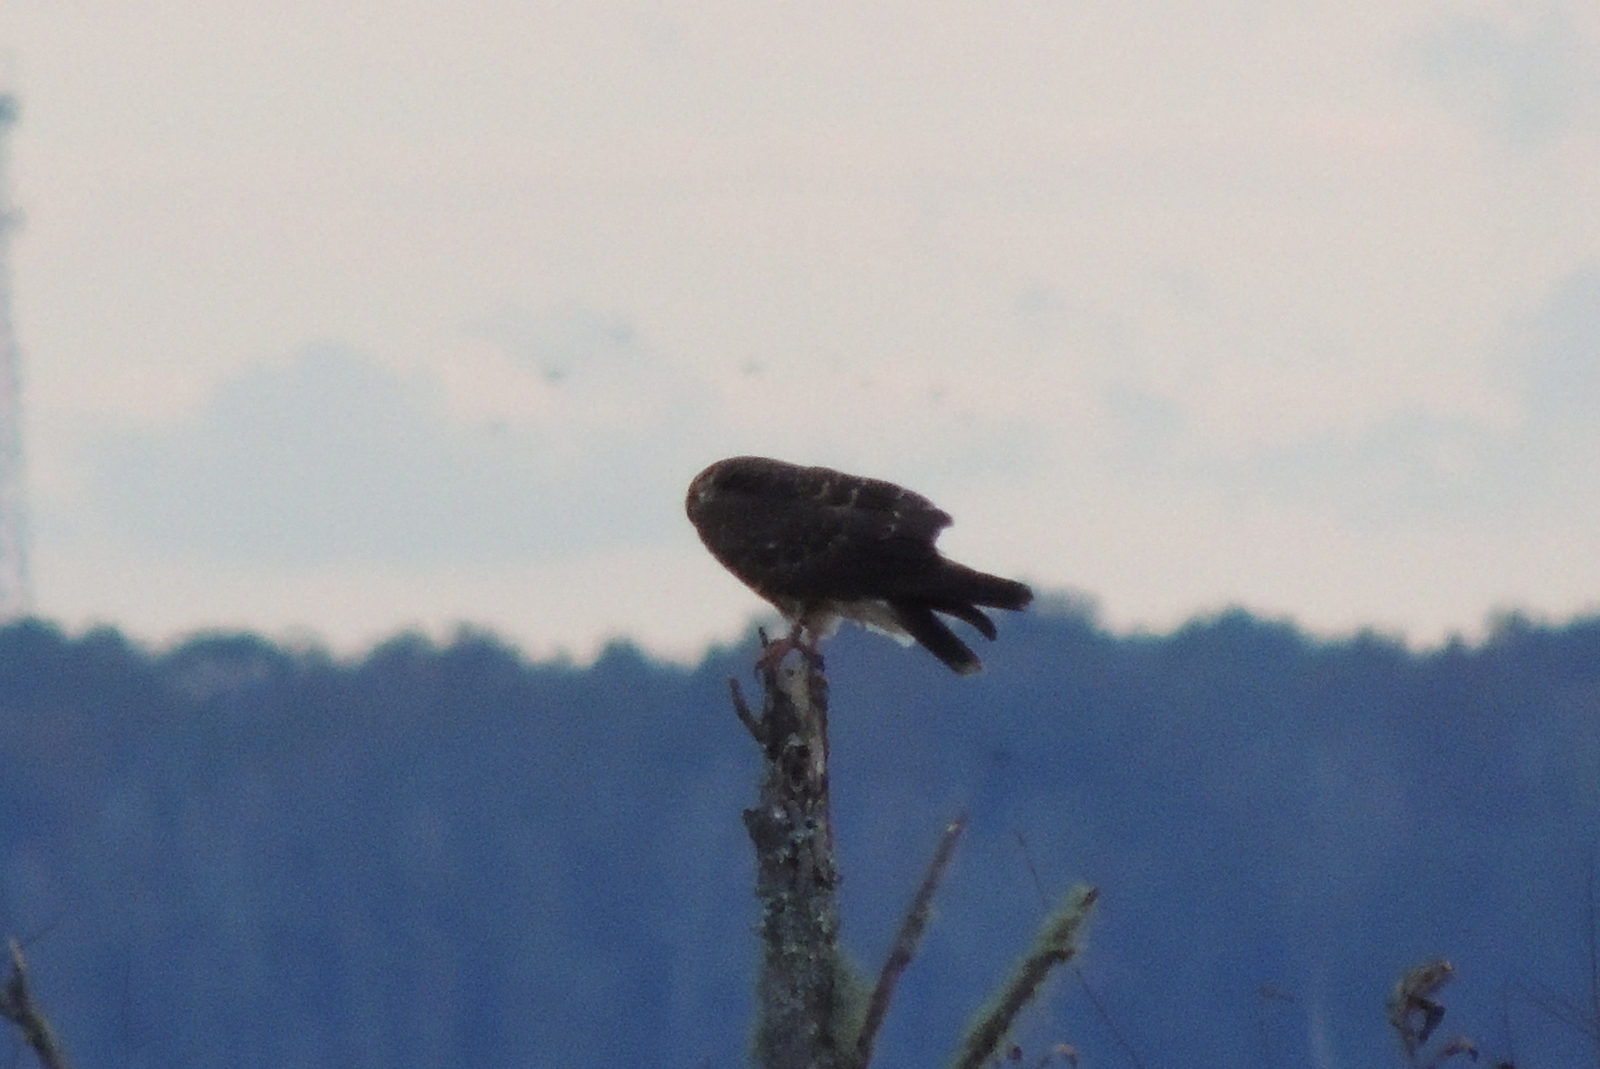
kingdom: Animalia
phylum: Chordata
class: Aves
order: Accipitriformes
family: Accipitridae
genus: Rostrhamus
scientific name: Rostrhamus sociabilis
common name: Snail kite
